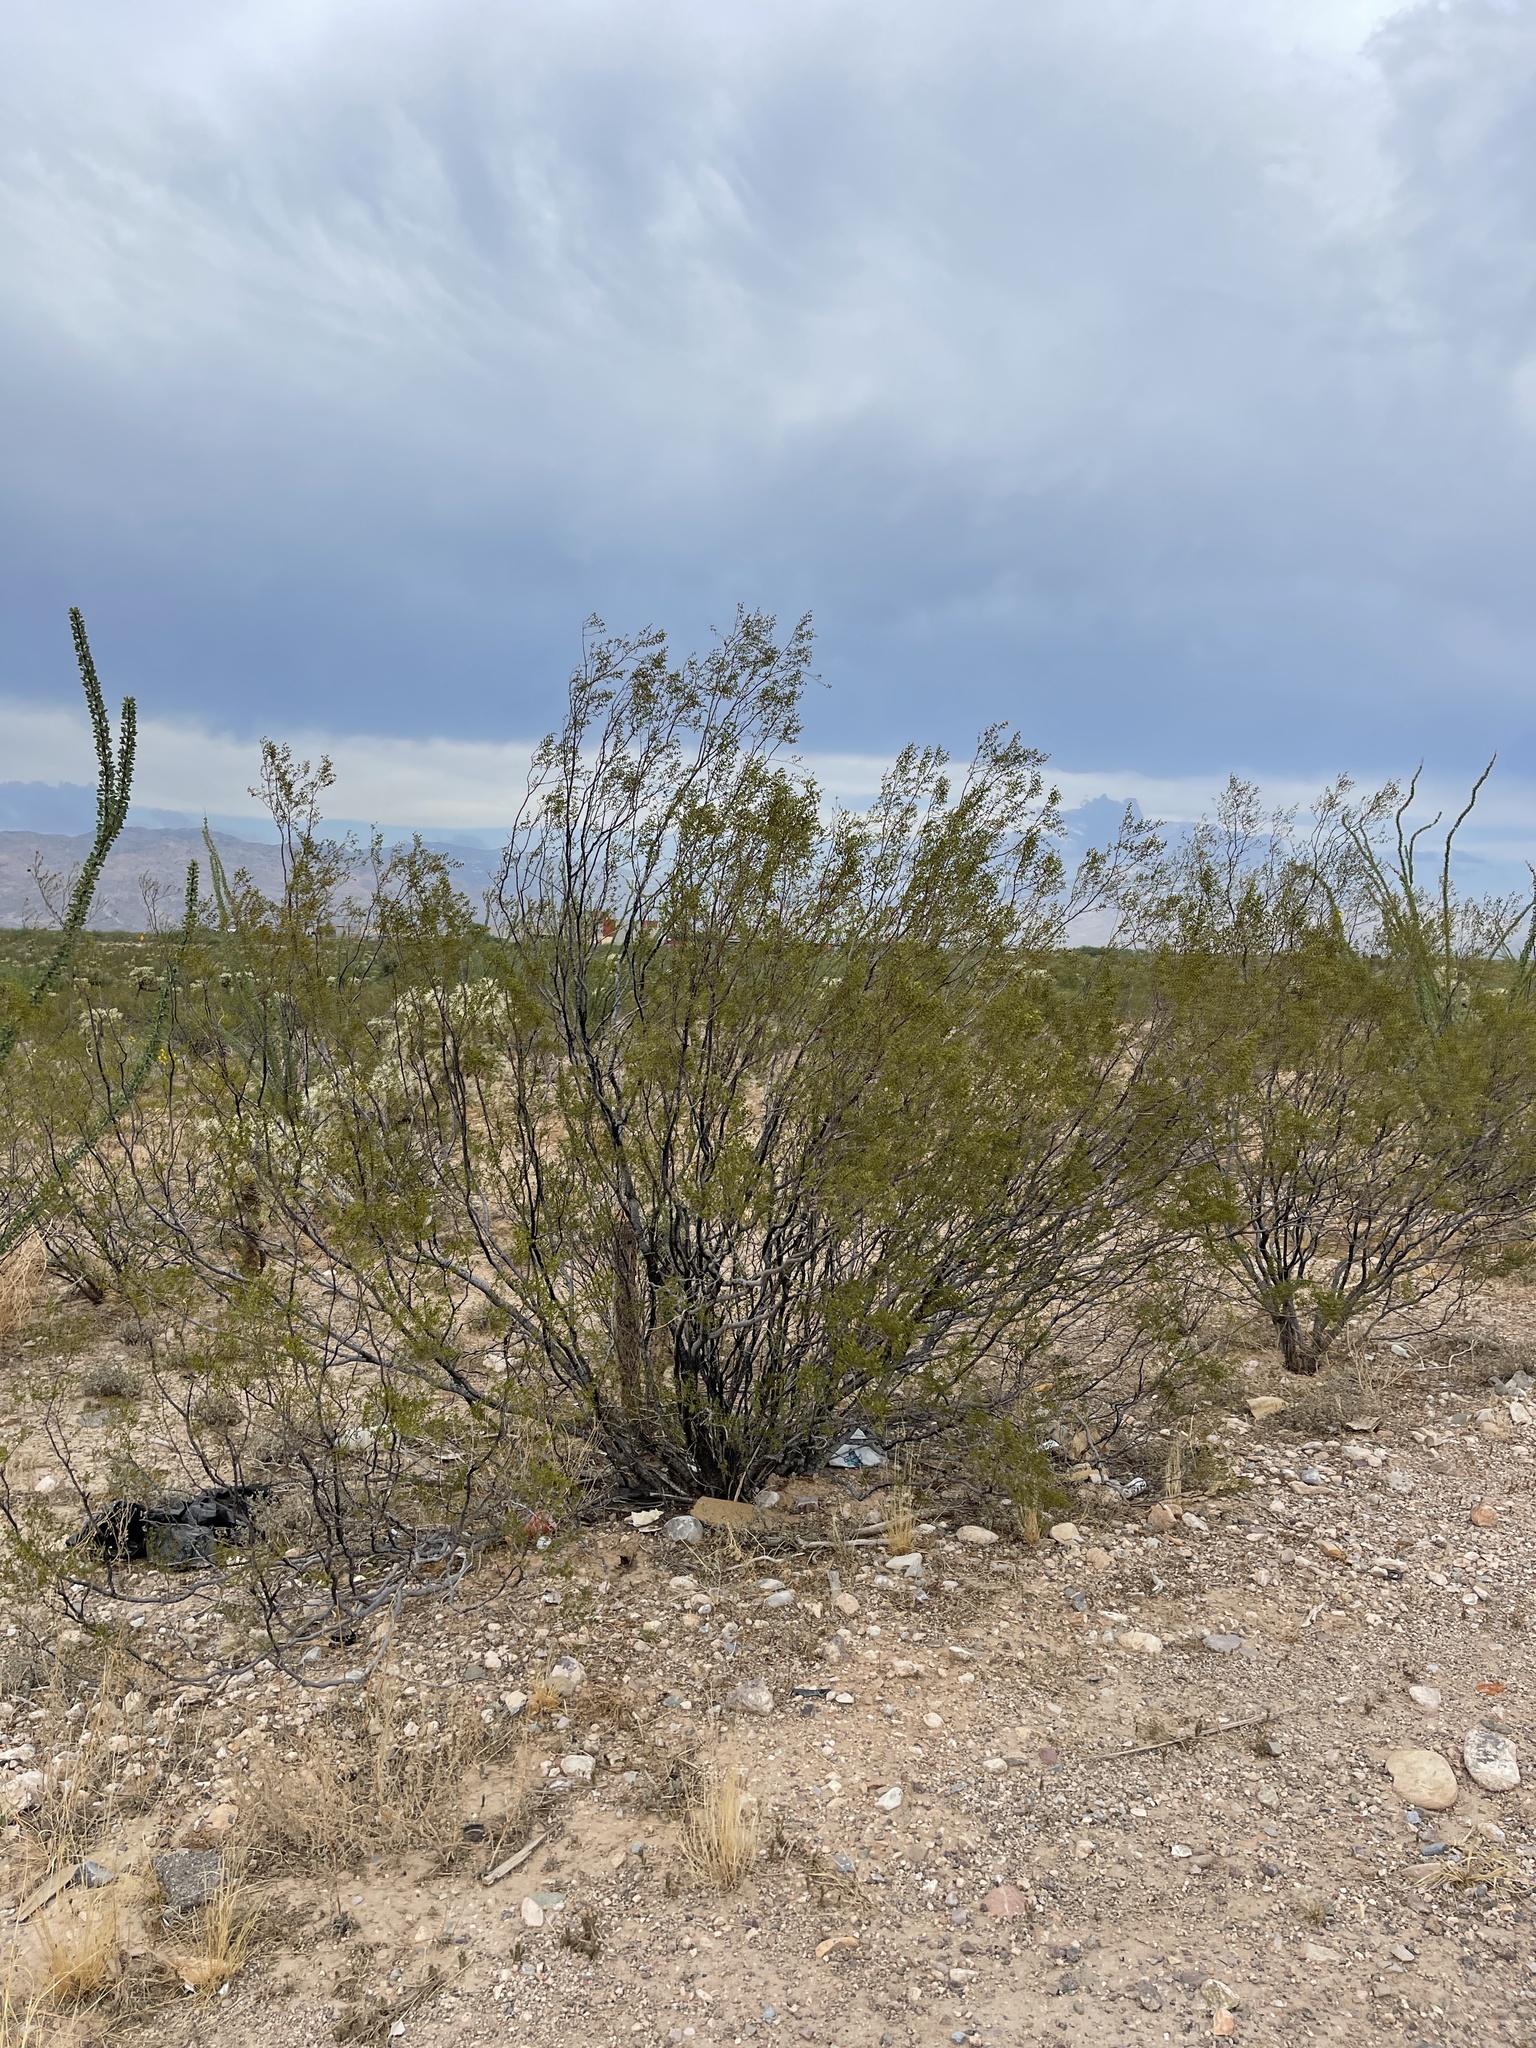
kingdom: Plantae
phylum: Tracheophyta
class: Magnoliopsida
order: Zygophyllales
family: Zygophyllaceae
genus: Larrea
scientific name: Larrea tridentata
